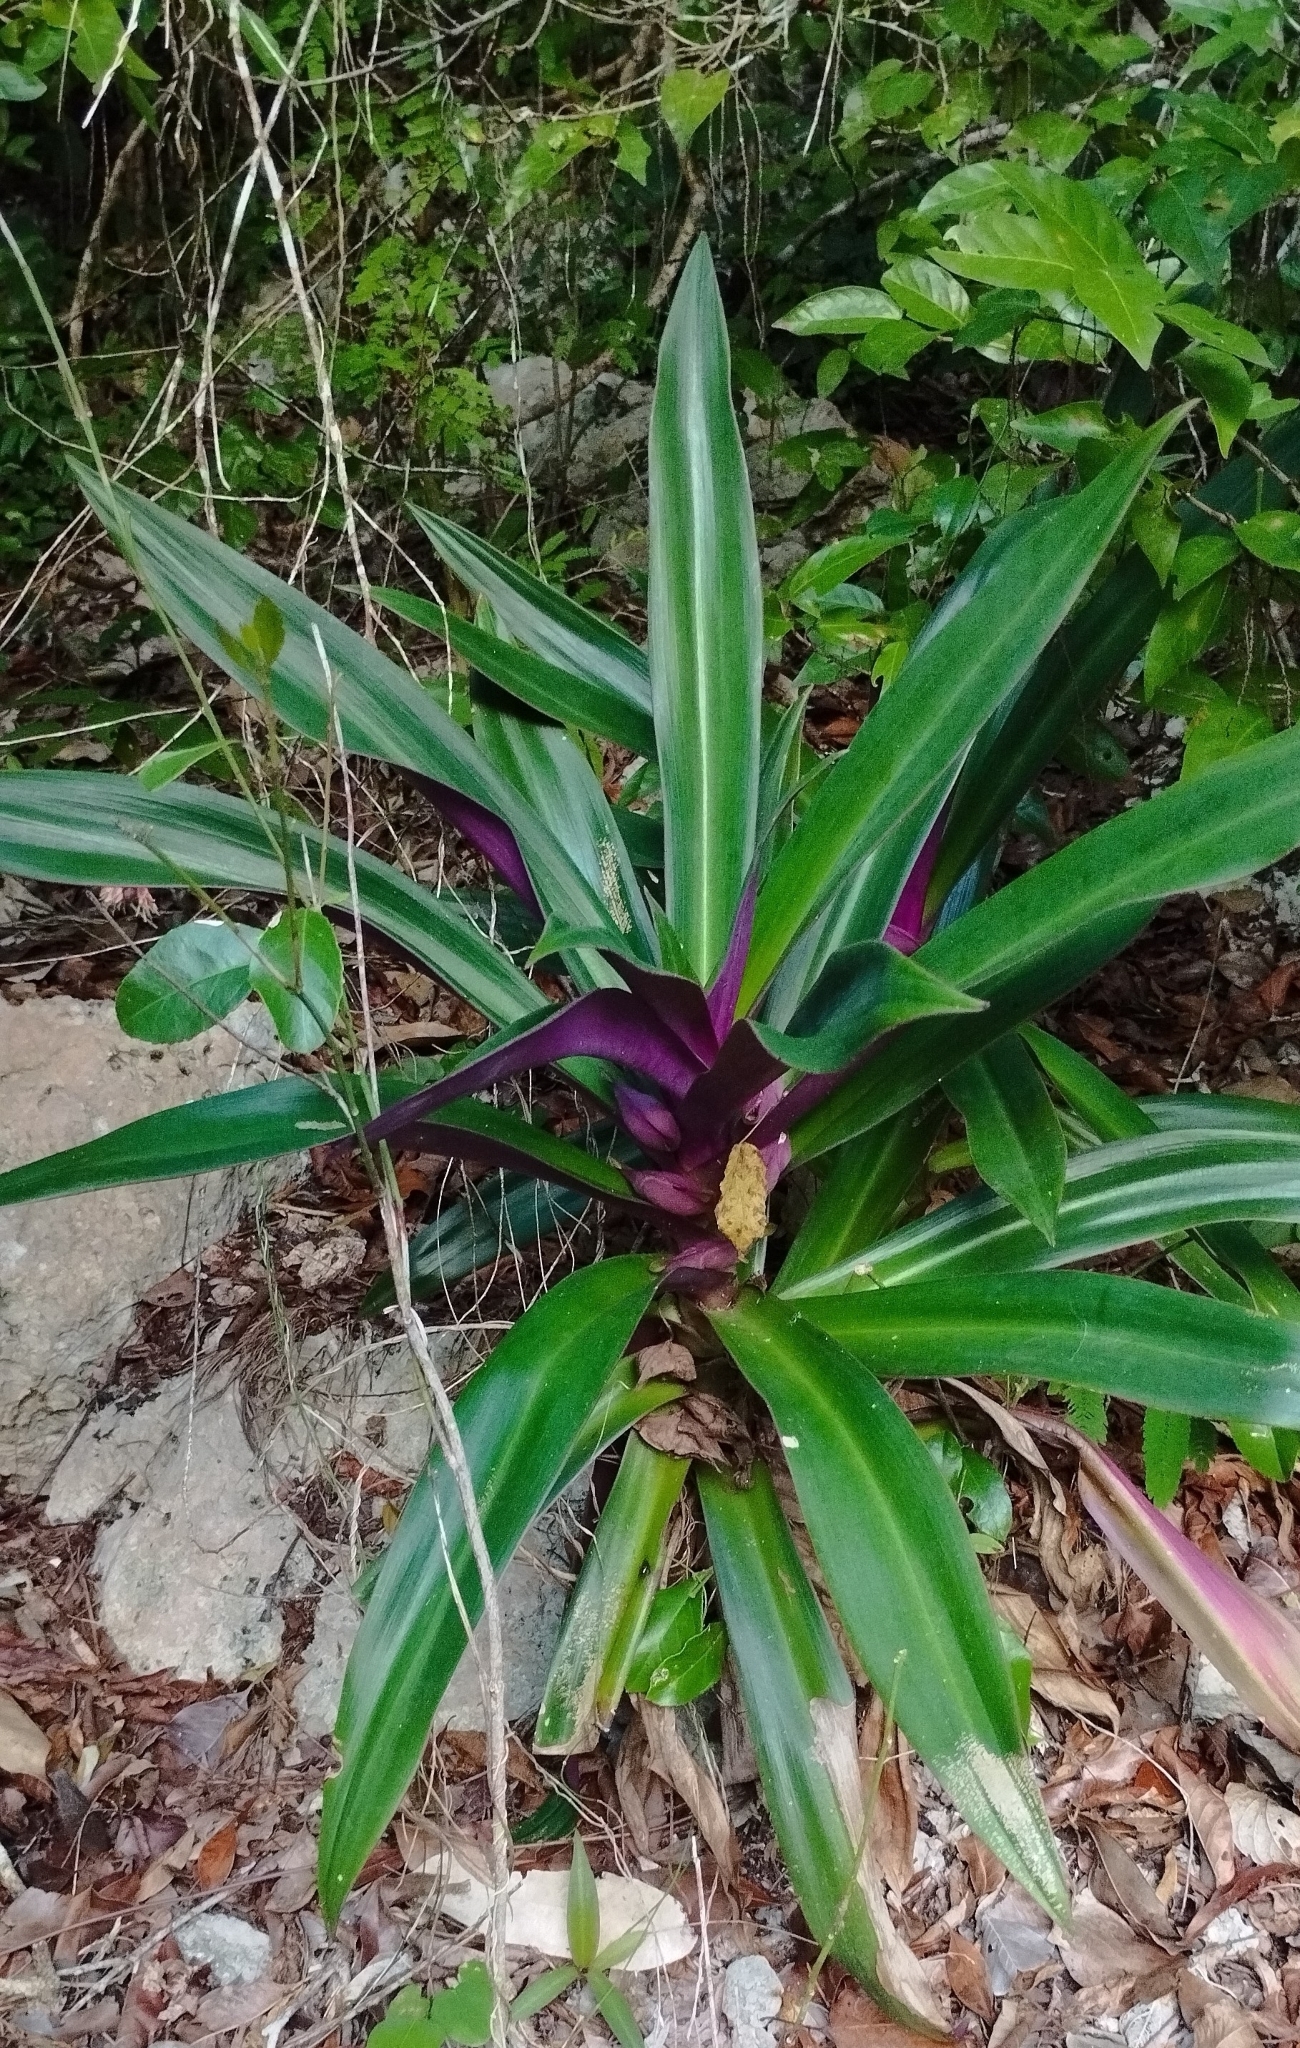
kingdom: Plantae
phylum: Tracheophyta
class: Liliopsida
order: Commelinales
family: Commelinaceae
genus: Tradescantia
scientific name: Tradescantia spathacea
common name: Boatlily
